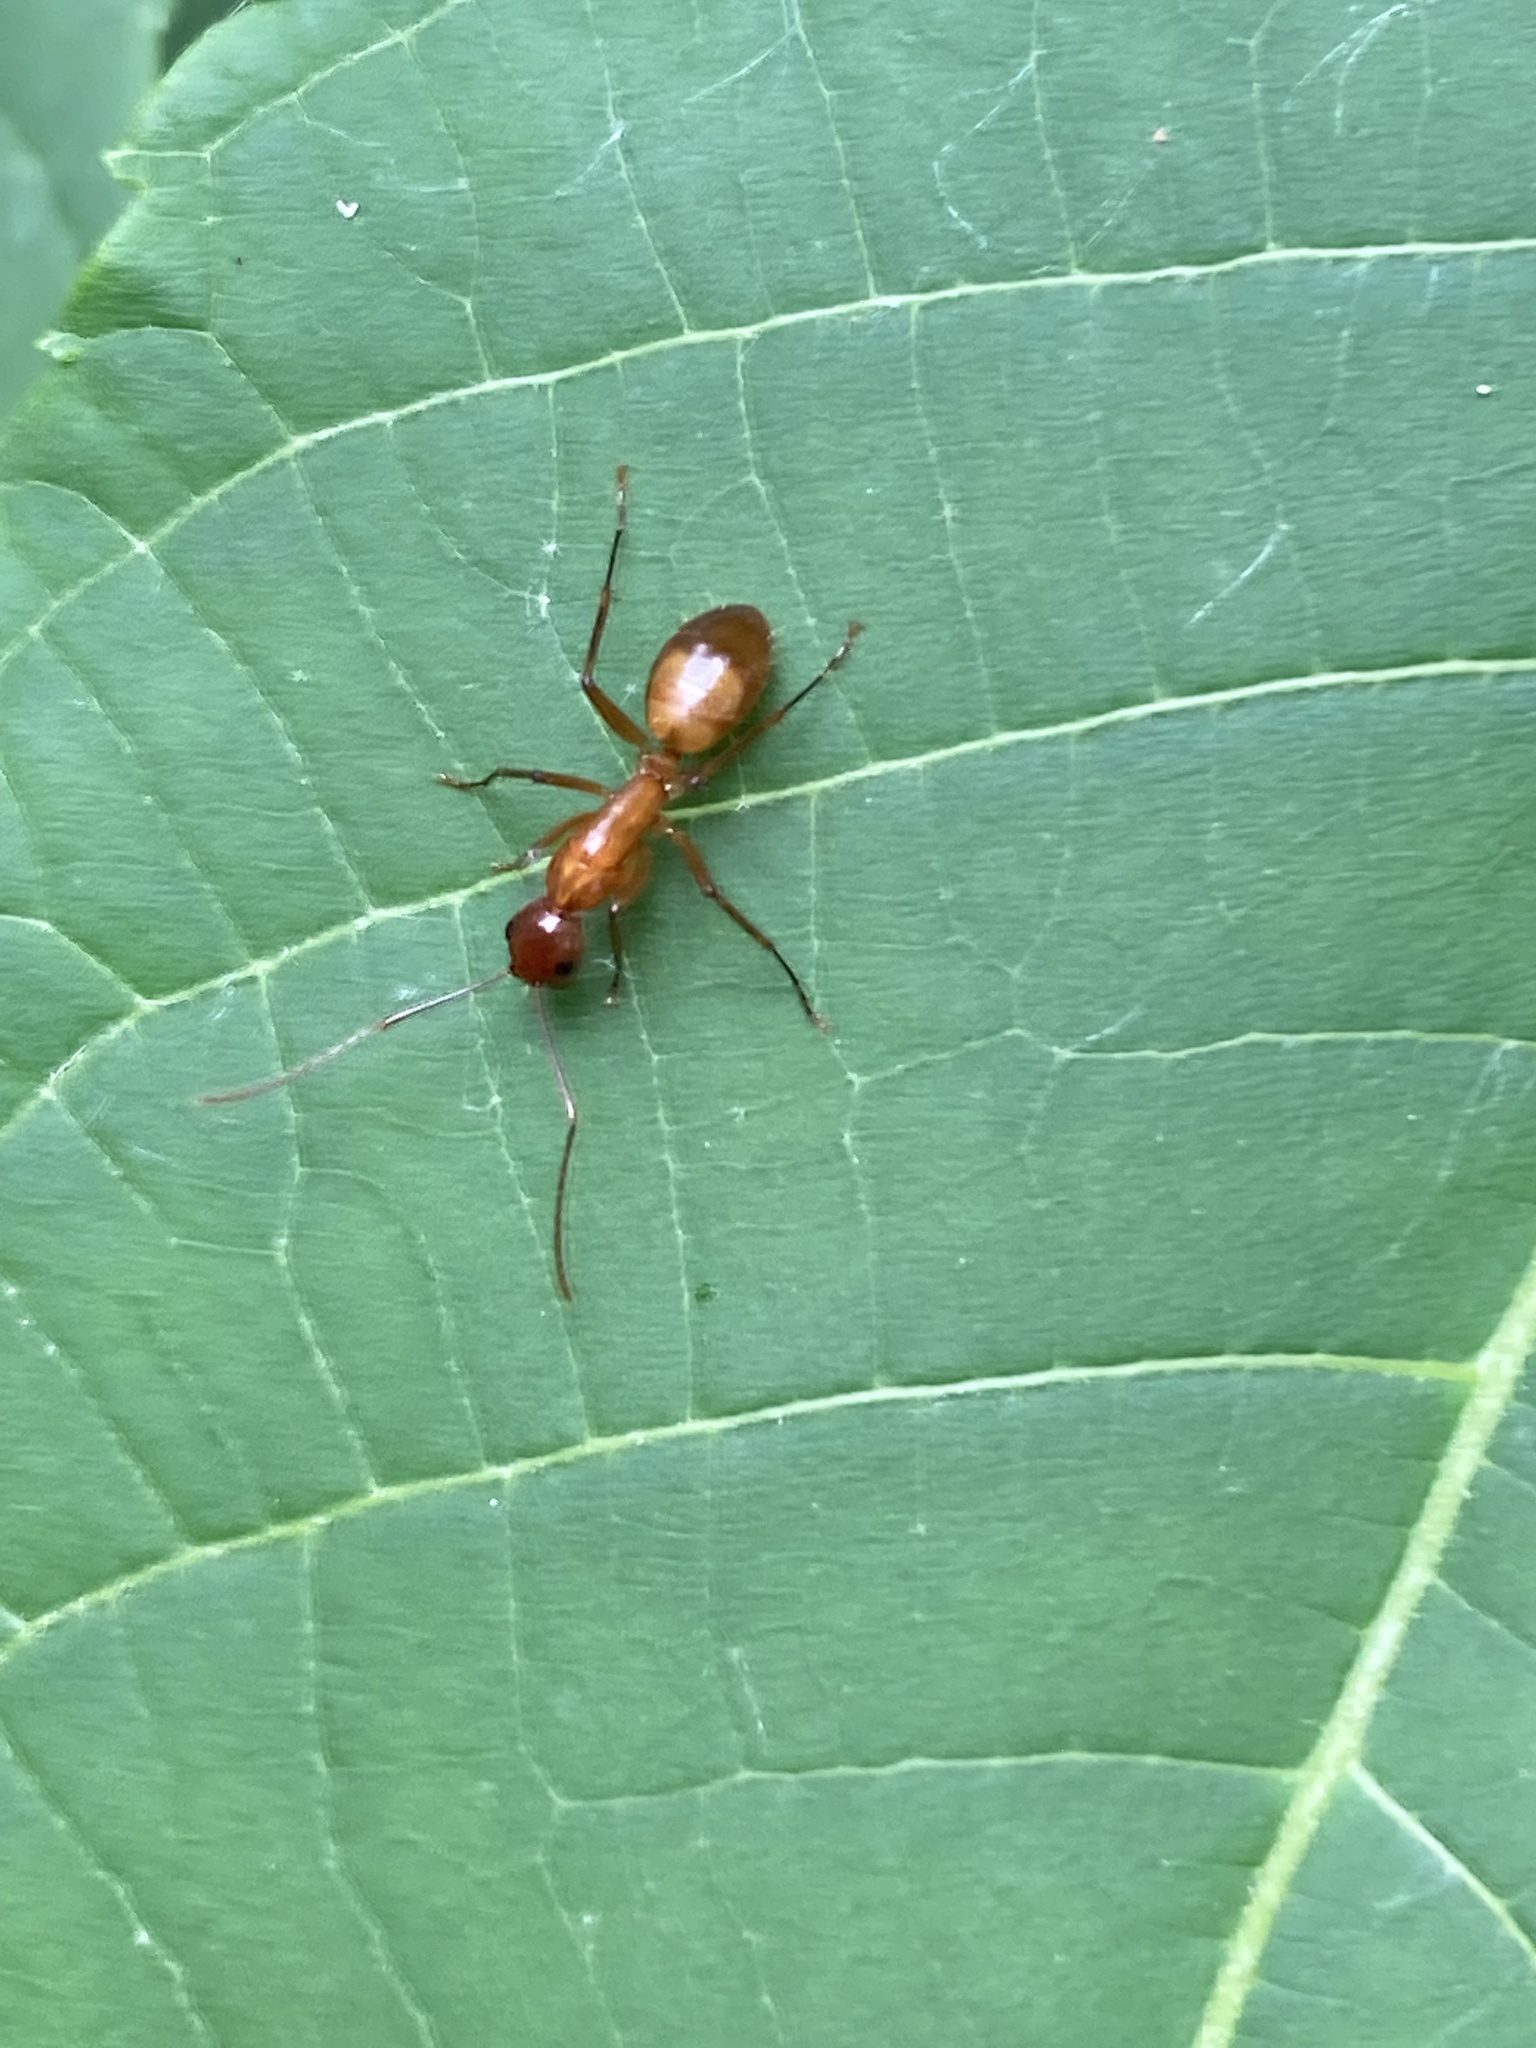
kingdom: Animalia
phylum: Arthropoda
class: Insecta
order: Hymenoptera
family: Formicidae
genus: Camponotus
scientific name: Camponotus castaneus
